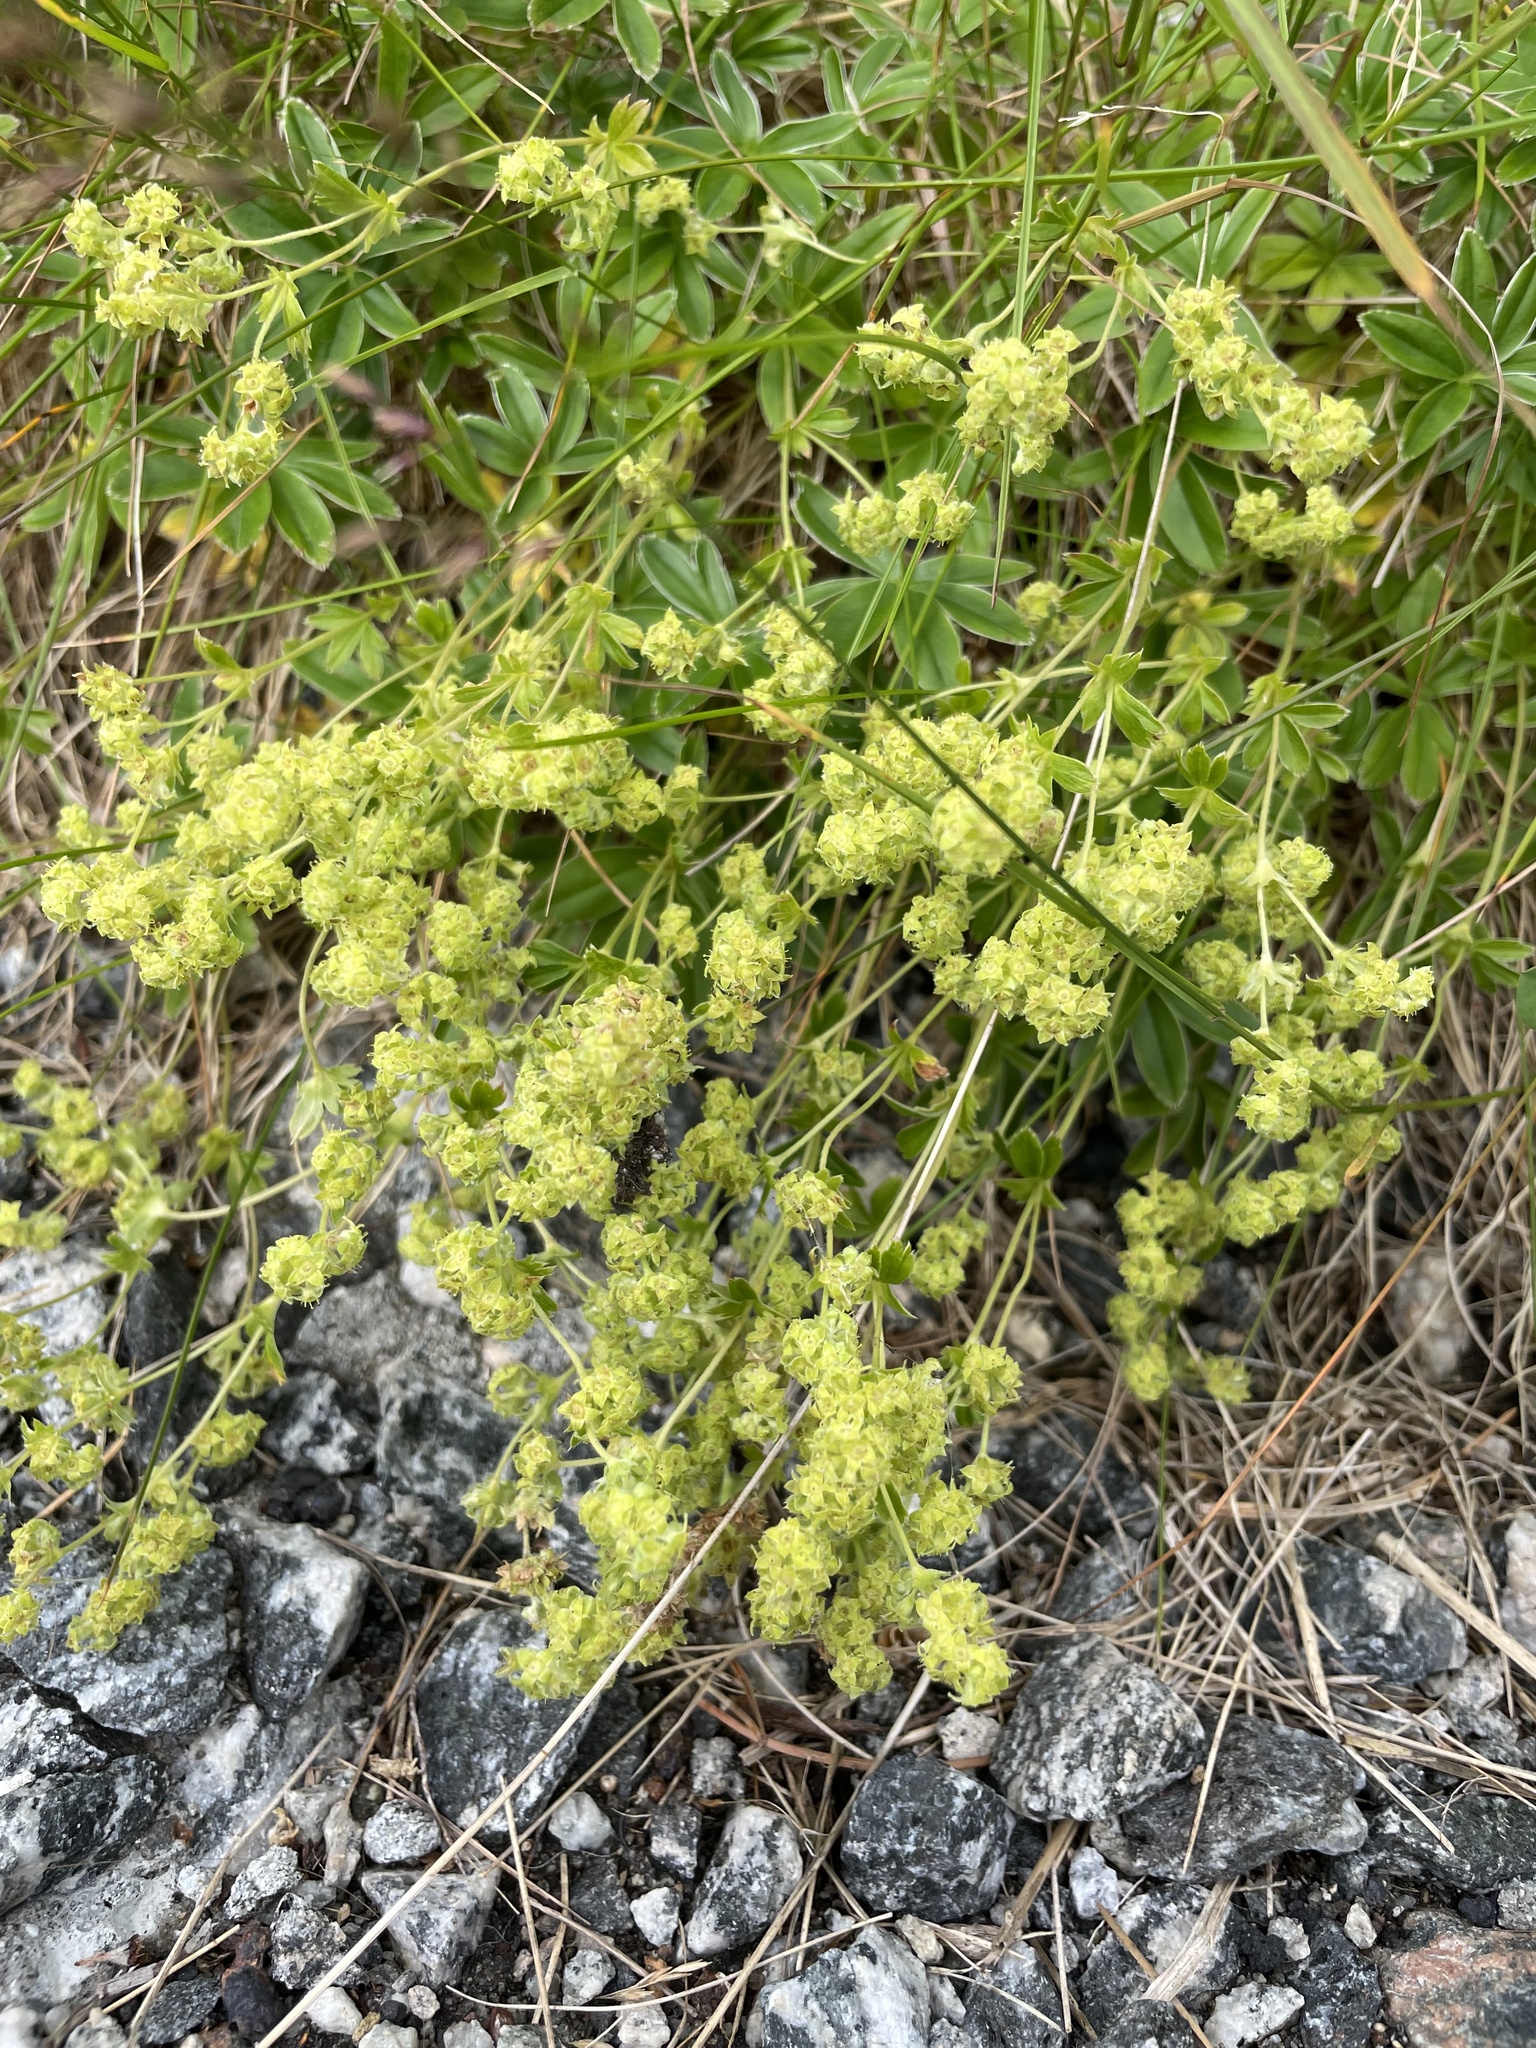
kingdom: Plantae
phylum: Tracheophyta
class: Magnoliopsida
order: Rosales
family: Rosaceae
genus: Alchemilla
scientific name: Alchemilla alpina
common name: Alpine lady's-mantle
